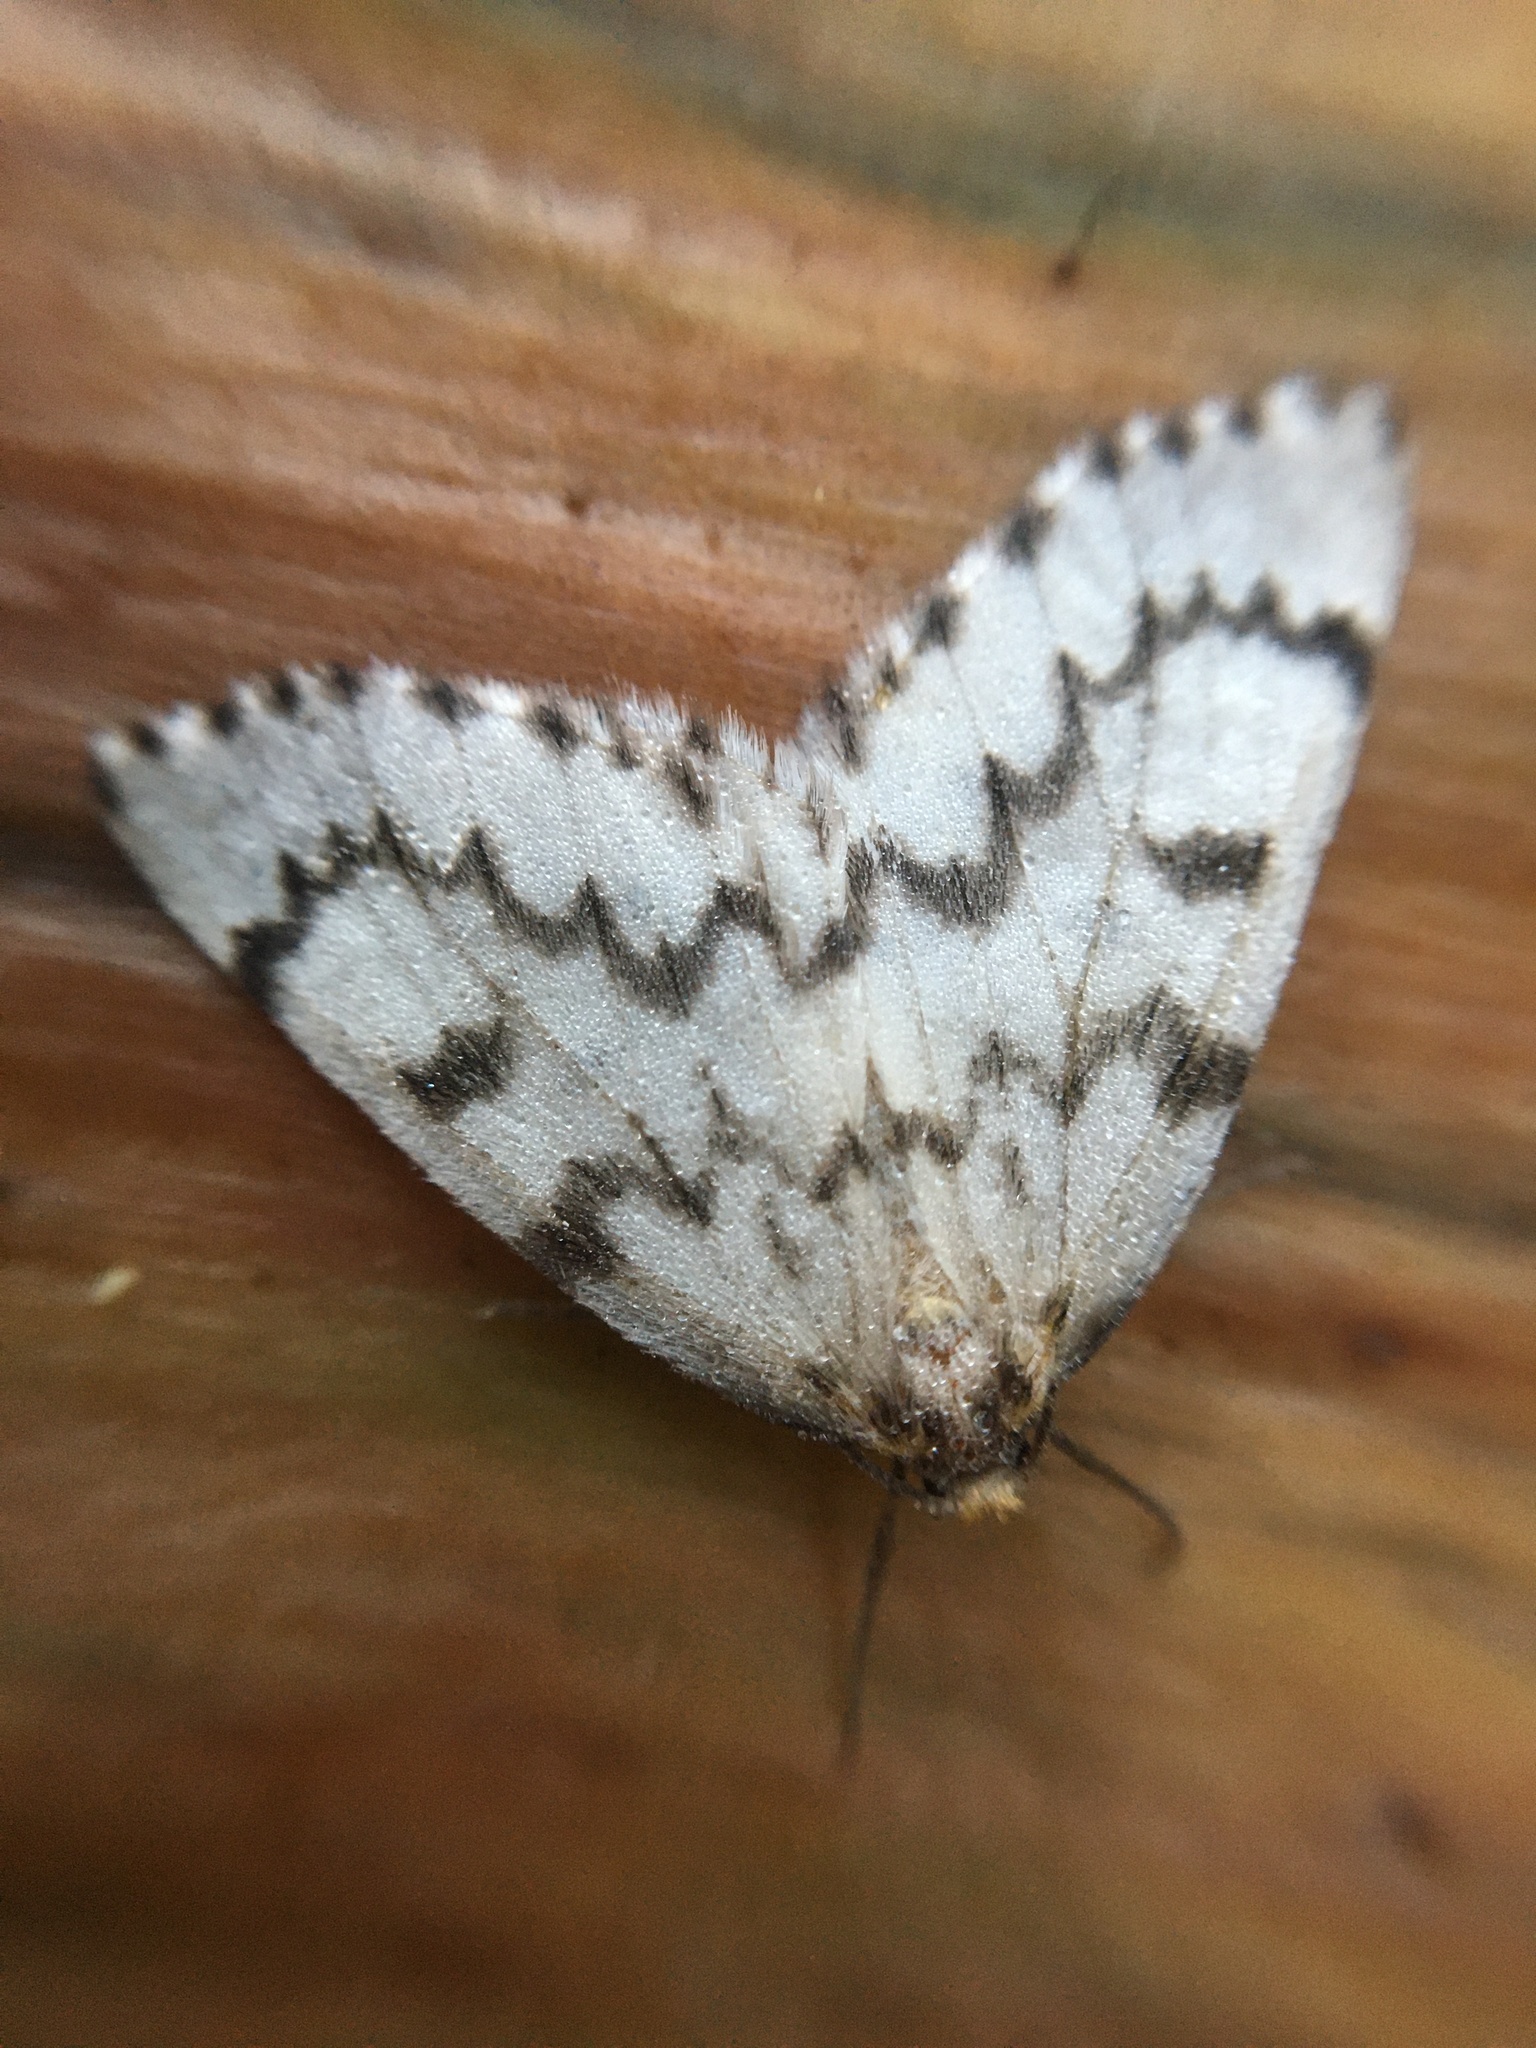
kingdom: Animalia
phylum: Arthropoda
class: Insecta
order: Lepidoptera
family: Geometridae
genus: Nepytia
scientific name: Nepytia phantasmaria
